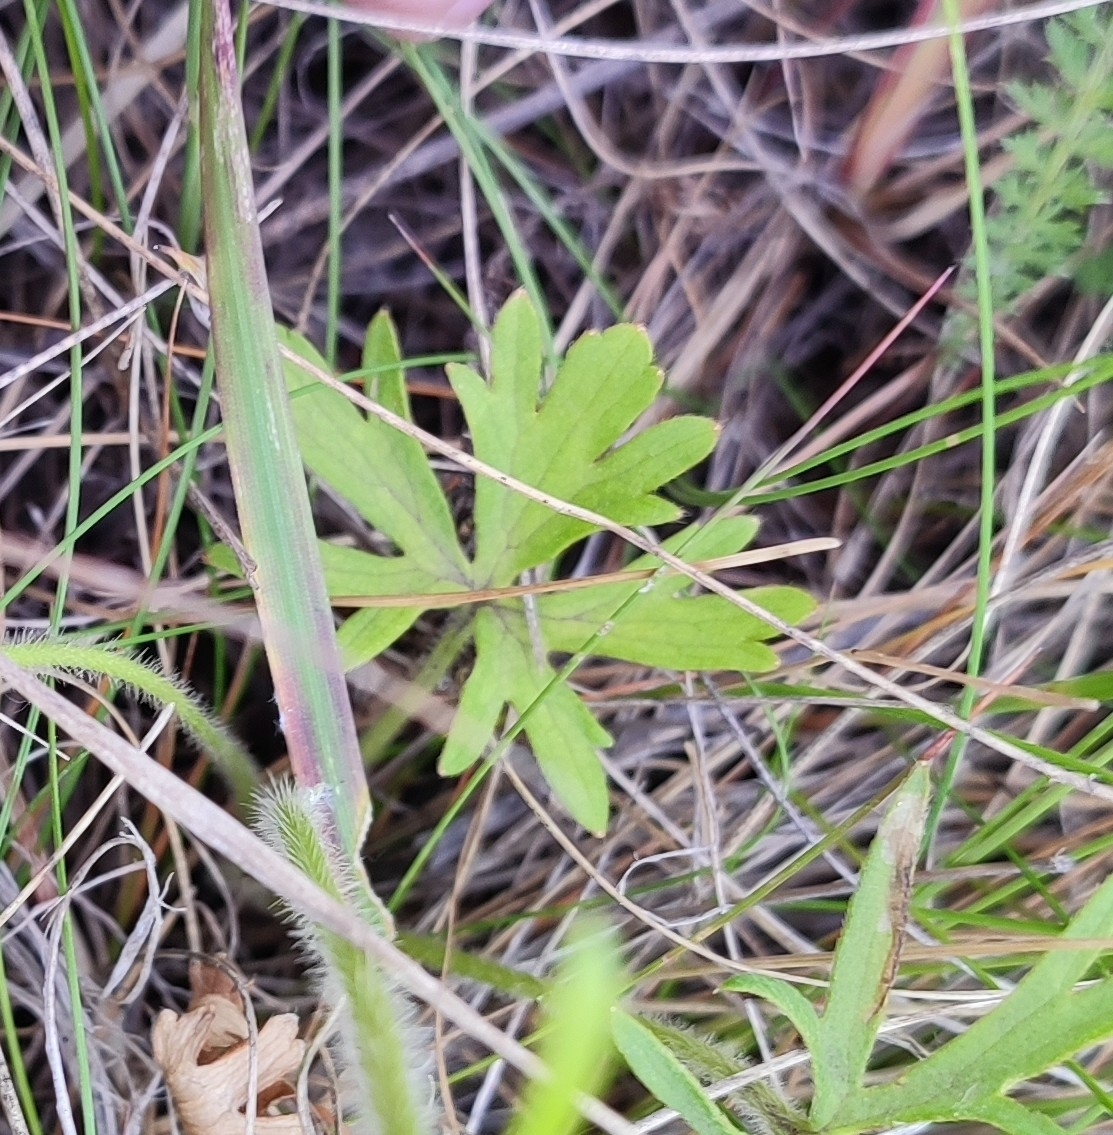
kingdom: Plantae
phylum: Tracheophyta
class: Magnoliopsida
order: Ranunculales
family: Ranunculaceae
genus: Ranunculus
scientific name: Ranunculus polyanthemos
